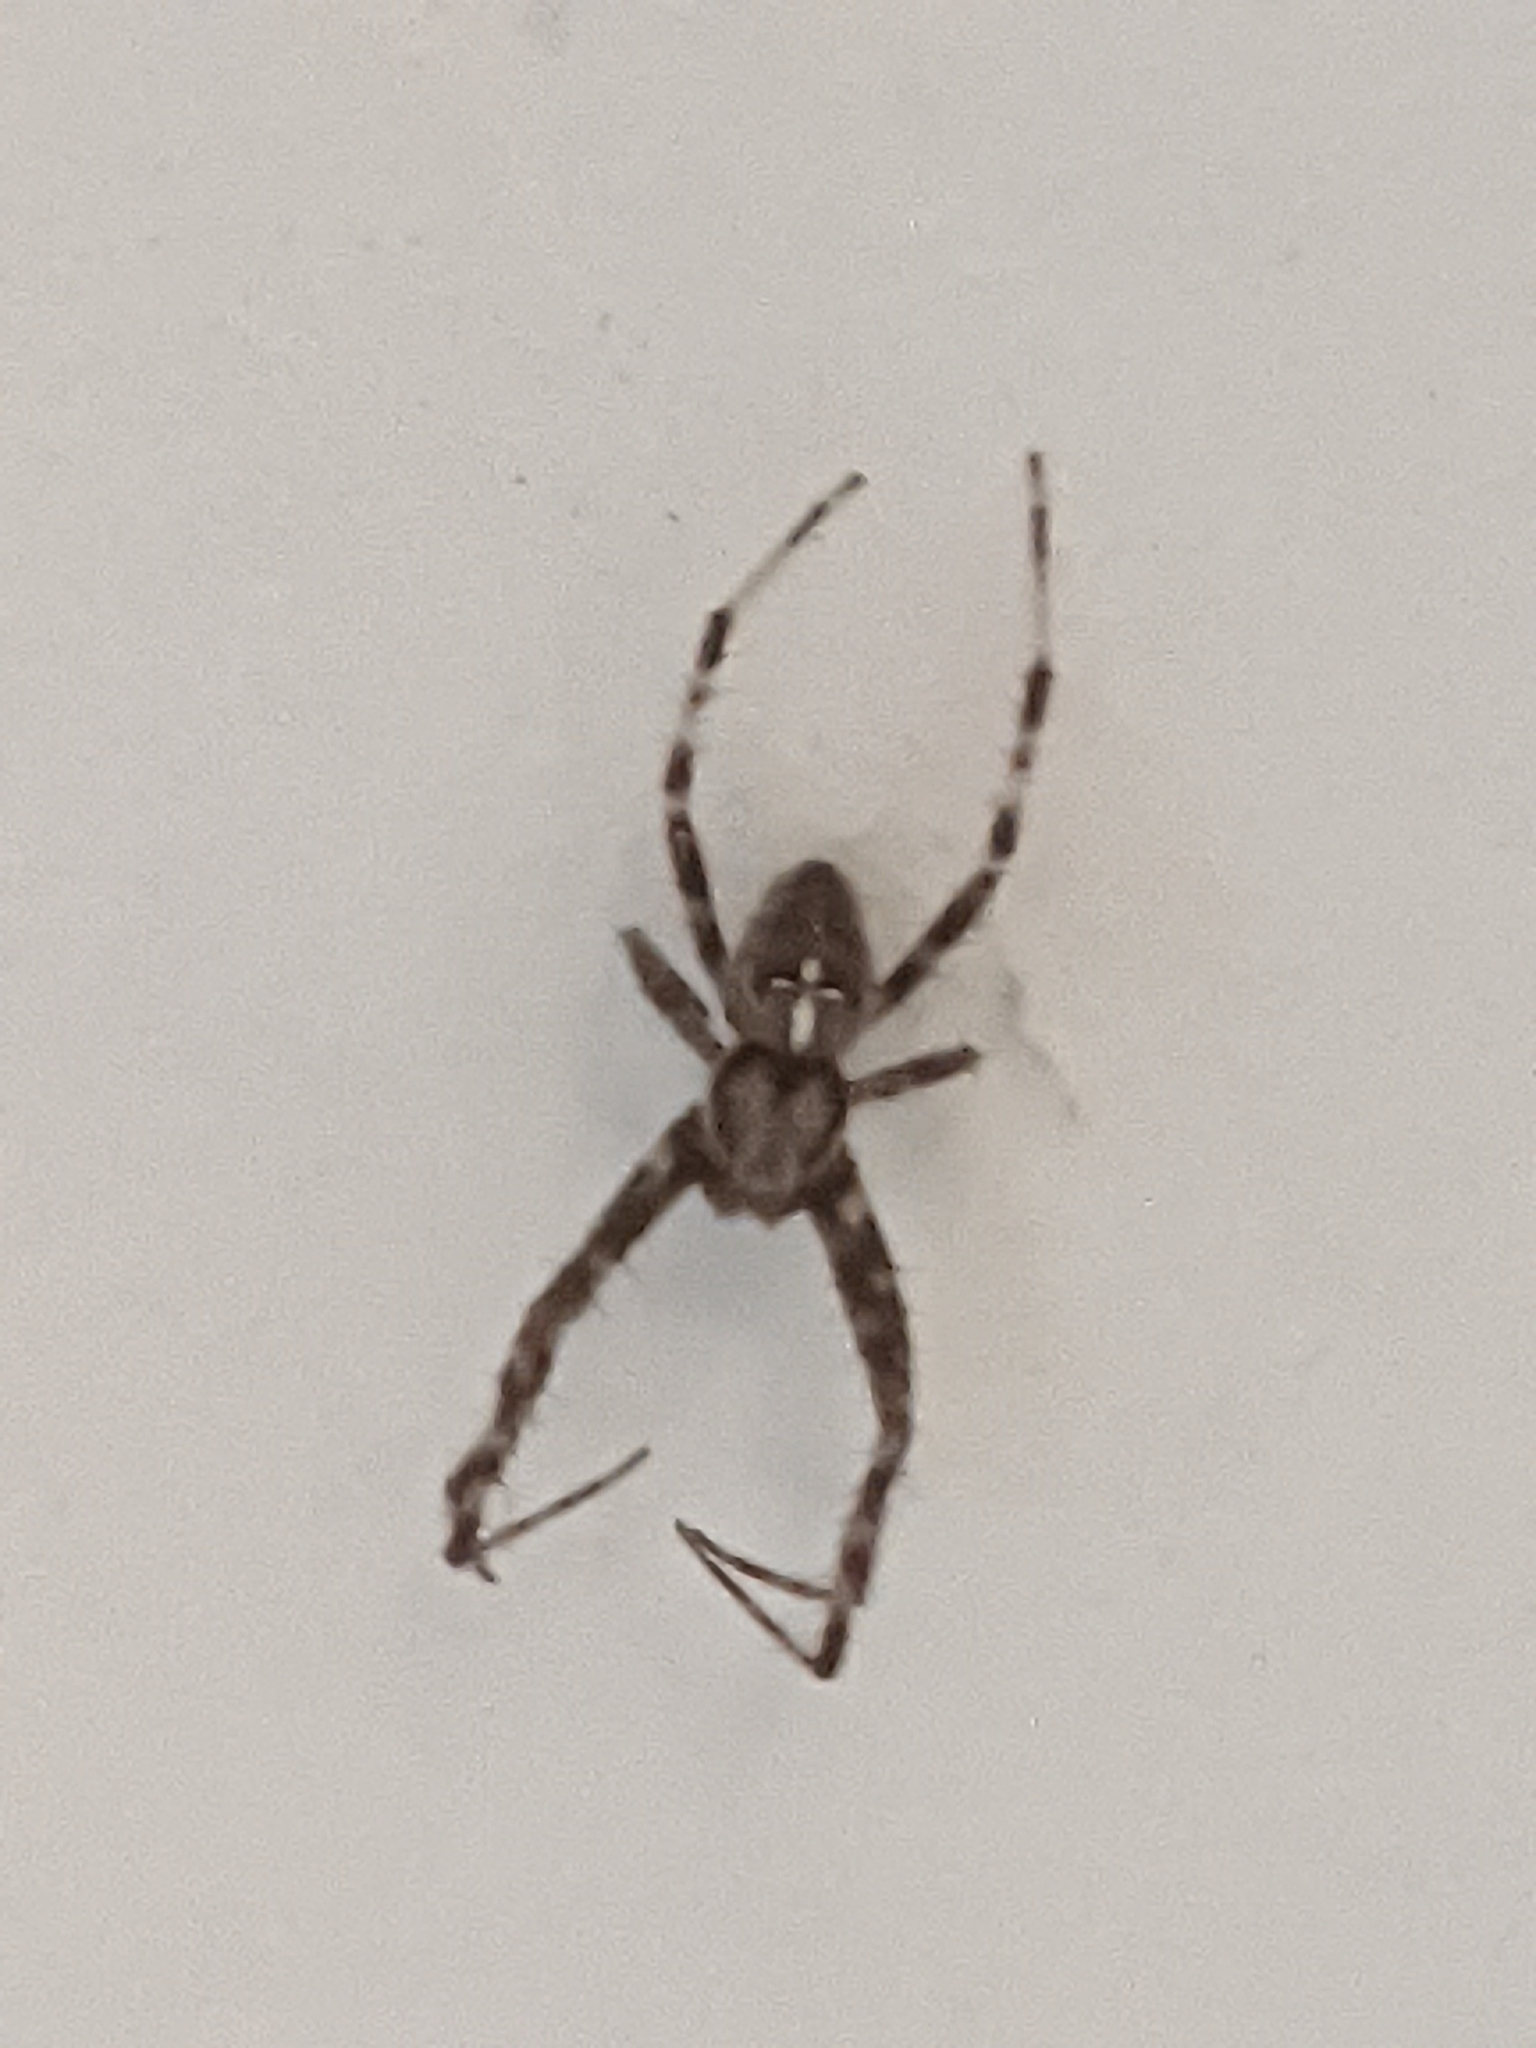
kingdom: Animalia
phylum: Arthropoda
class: Arachnida
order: Araneae
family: Araneidae
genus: Araneus
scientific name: Araneus diadematus
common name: Cross orbweaver
